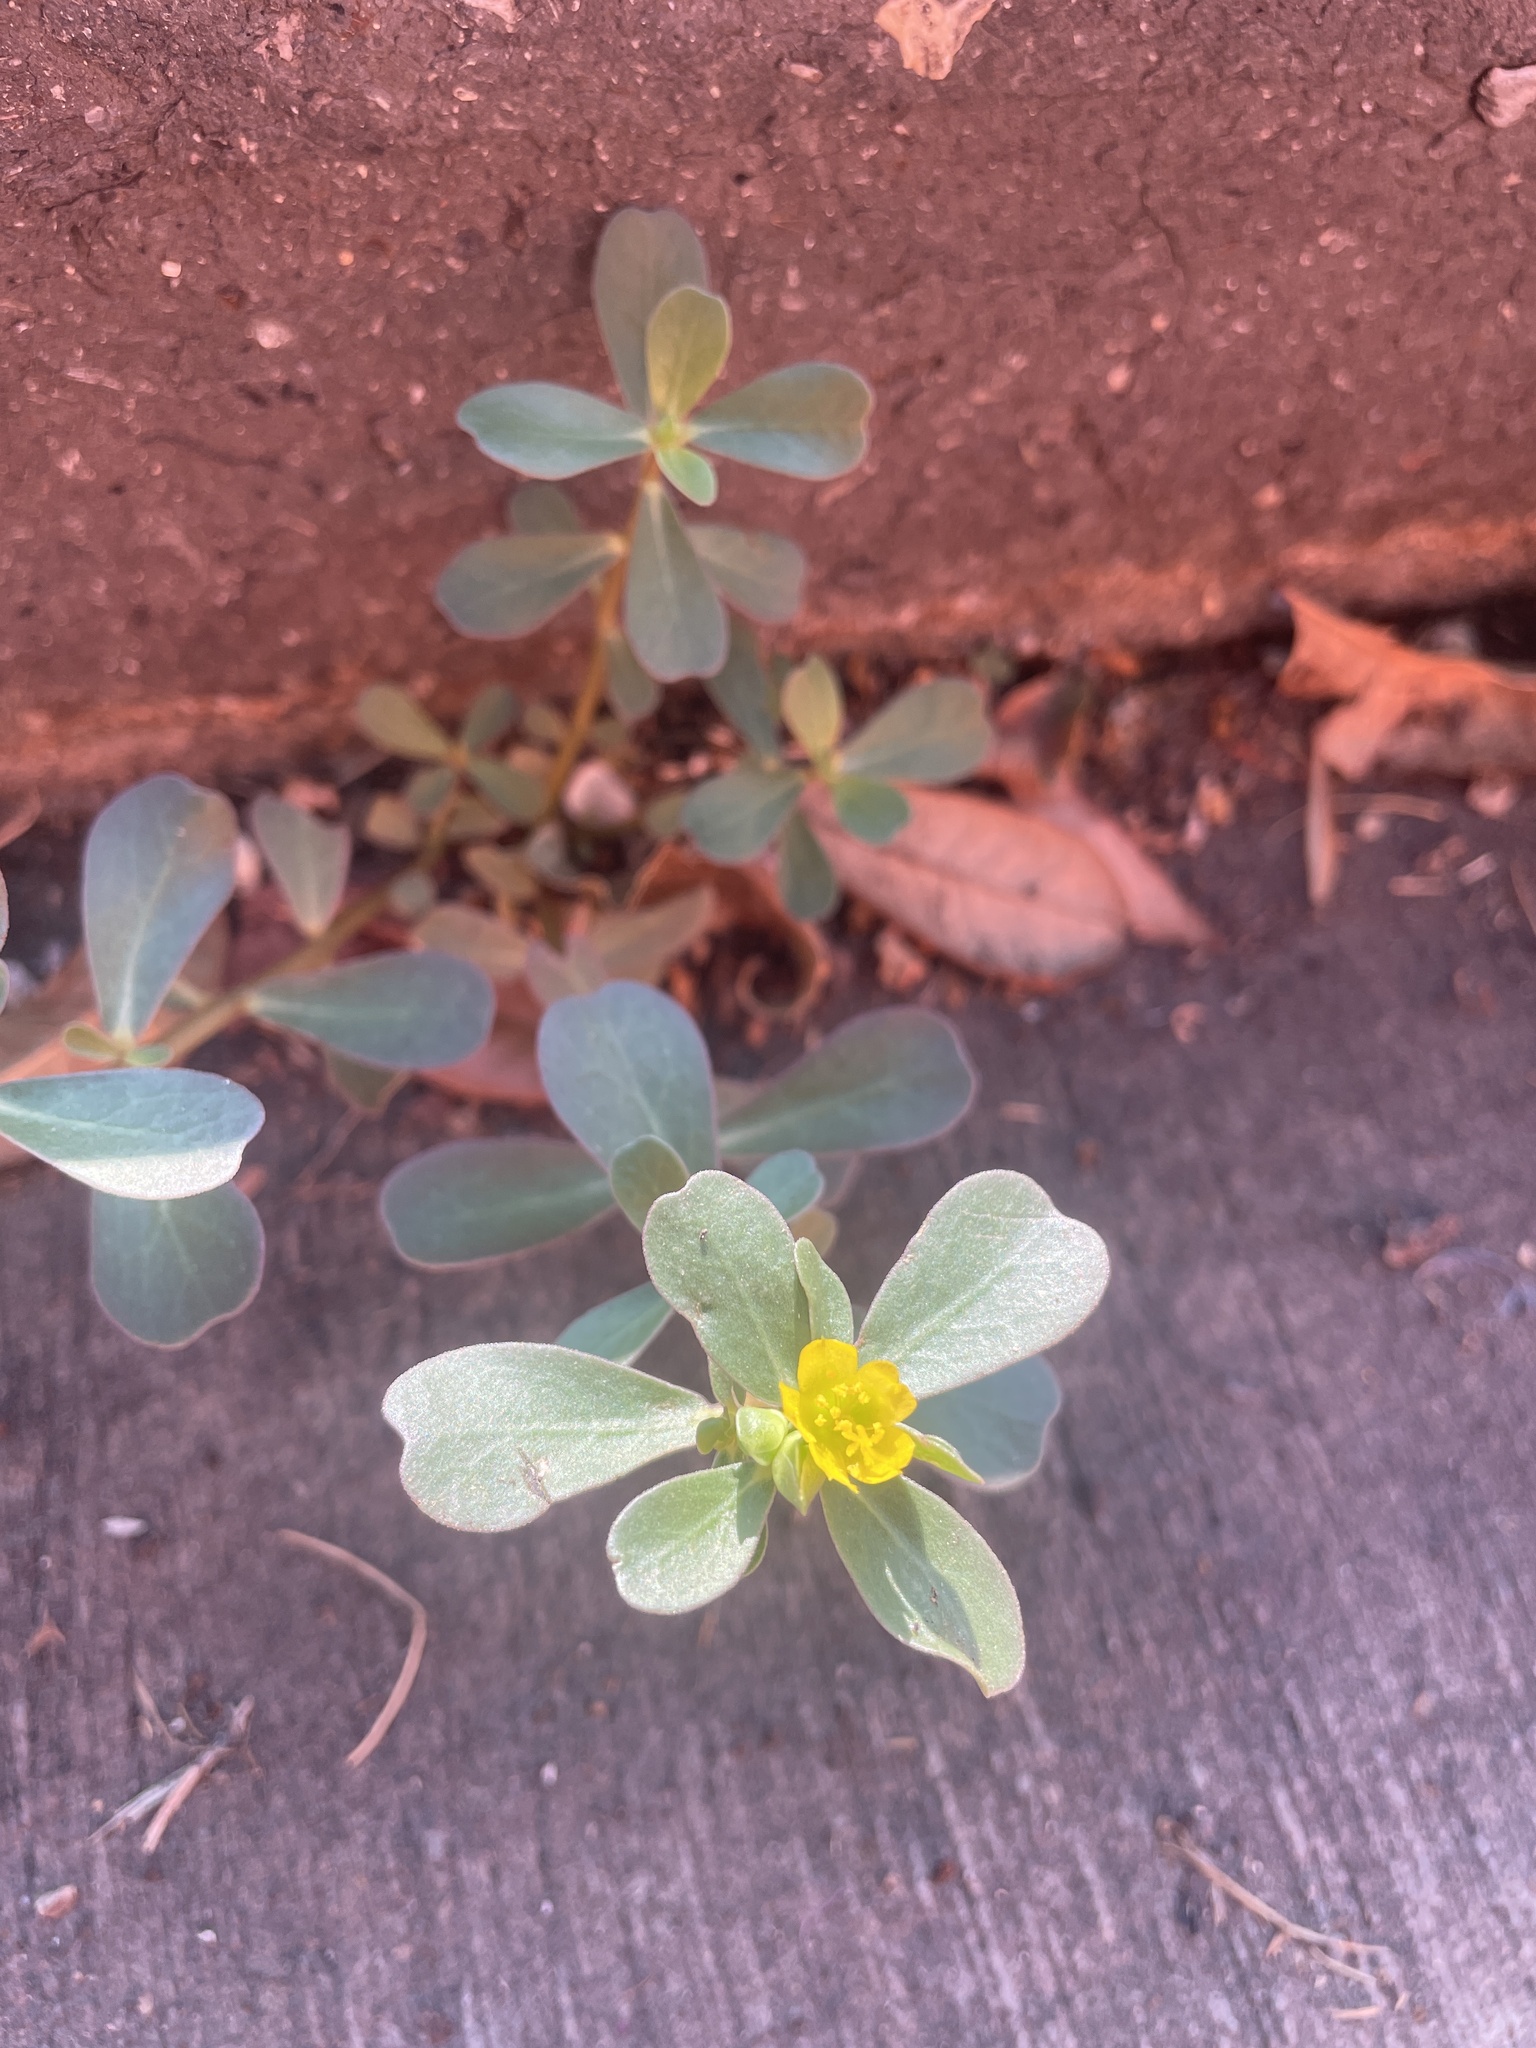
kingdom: Plantae
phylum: Tracheophyta
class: Magnoliopsida
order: Caryophyllales
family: Portulacaceae
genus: Portulaca
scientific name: Portulaca oleracea
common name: Common purslane
